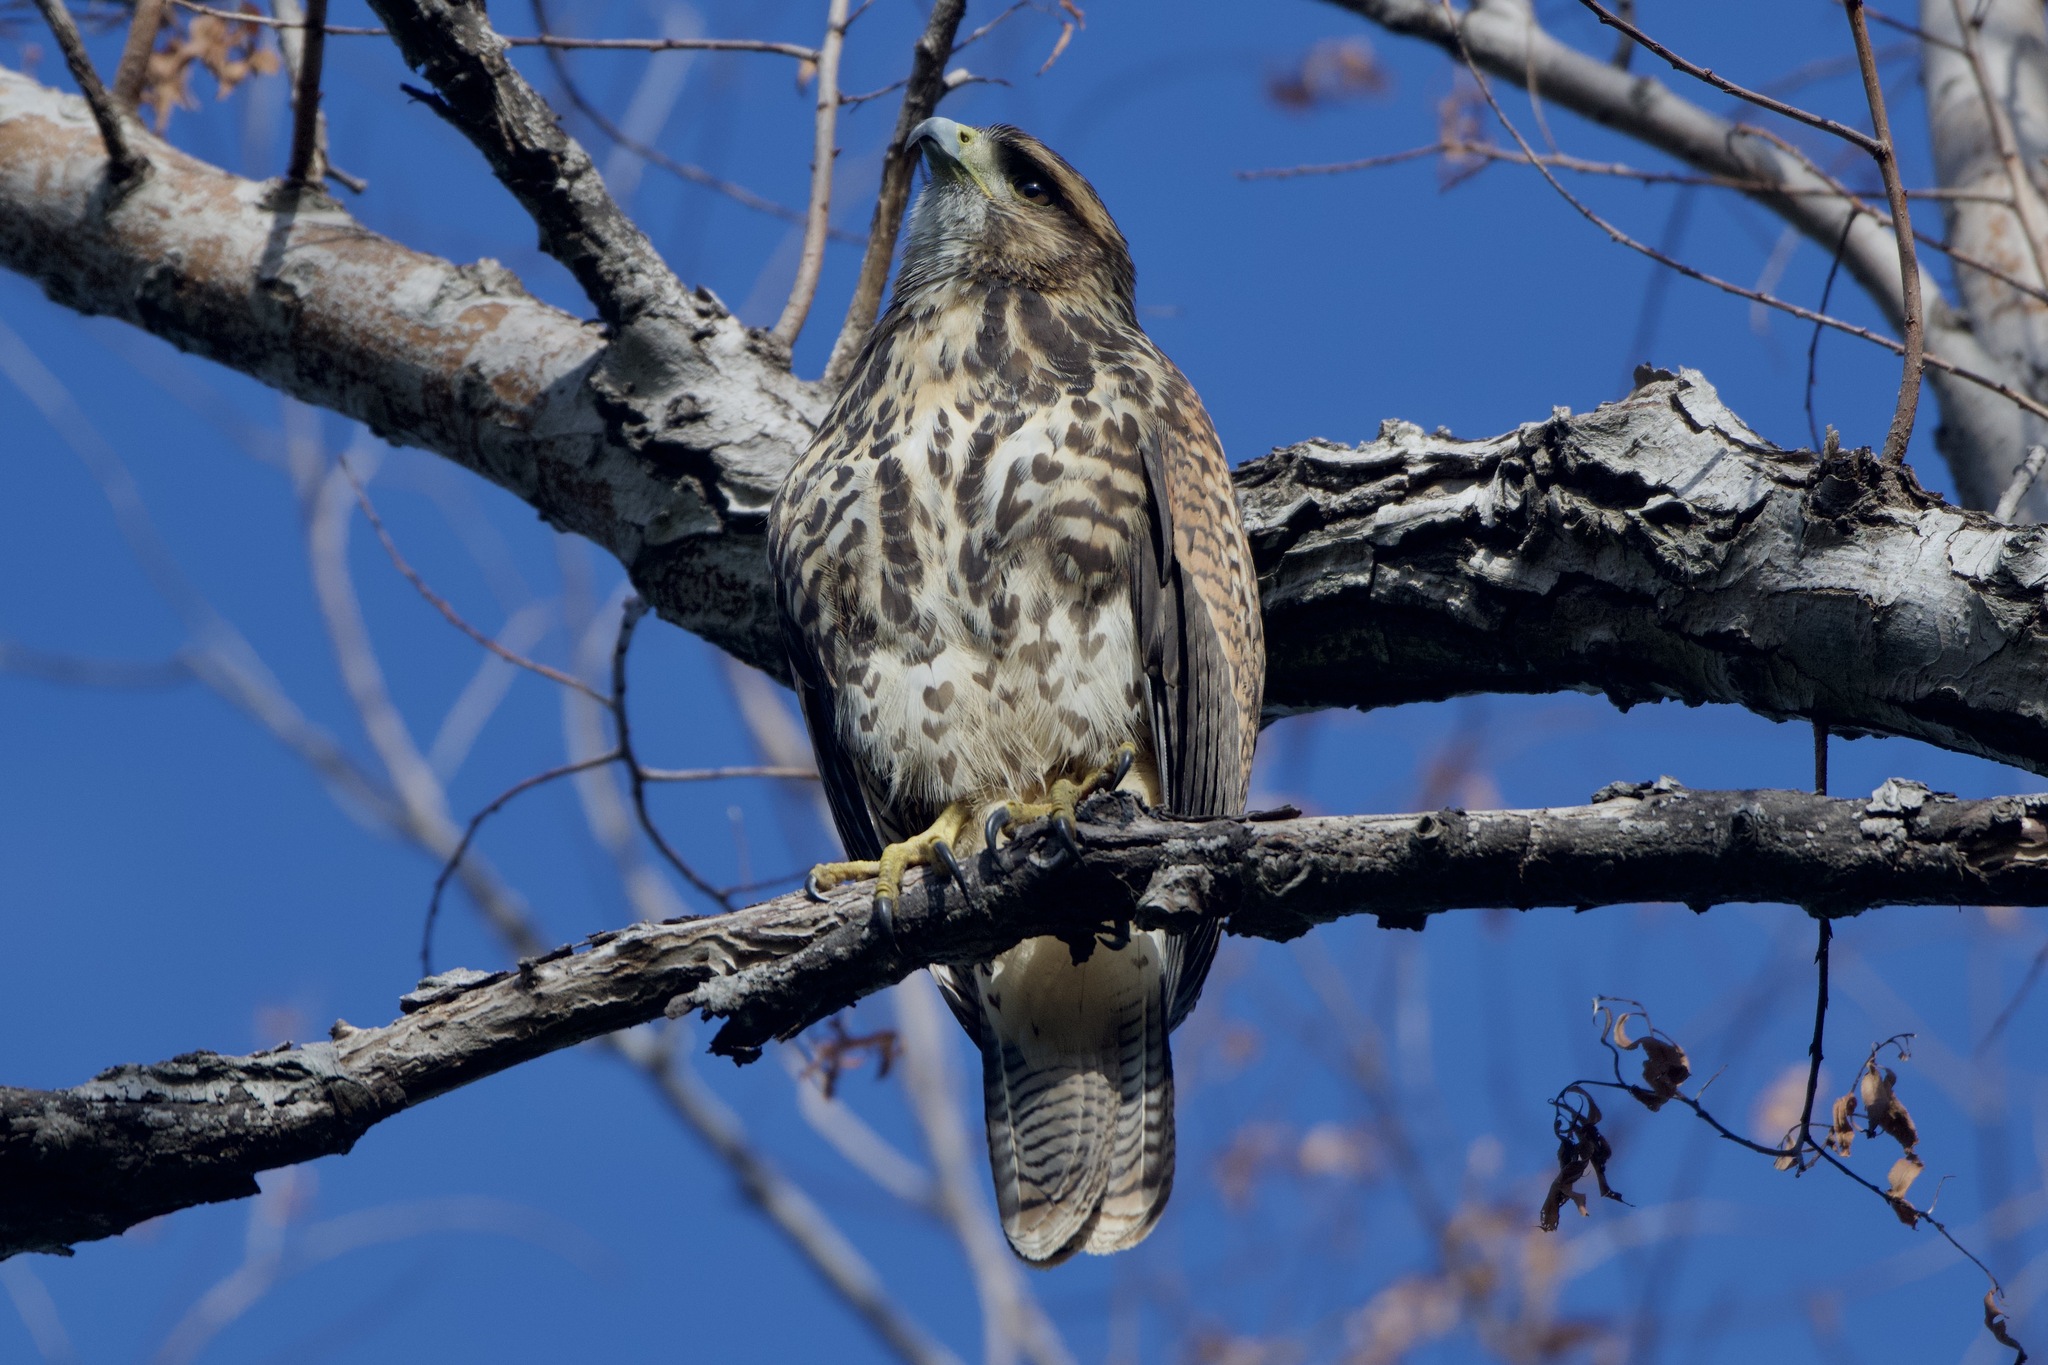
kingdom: Animalia
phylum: Chordata
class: Aves
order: Accipitriformes
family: Accipitridae
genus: Parabuteo
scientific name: Parabuteo unicinctus
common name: Harris's hawk
